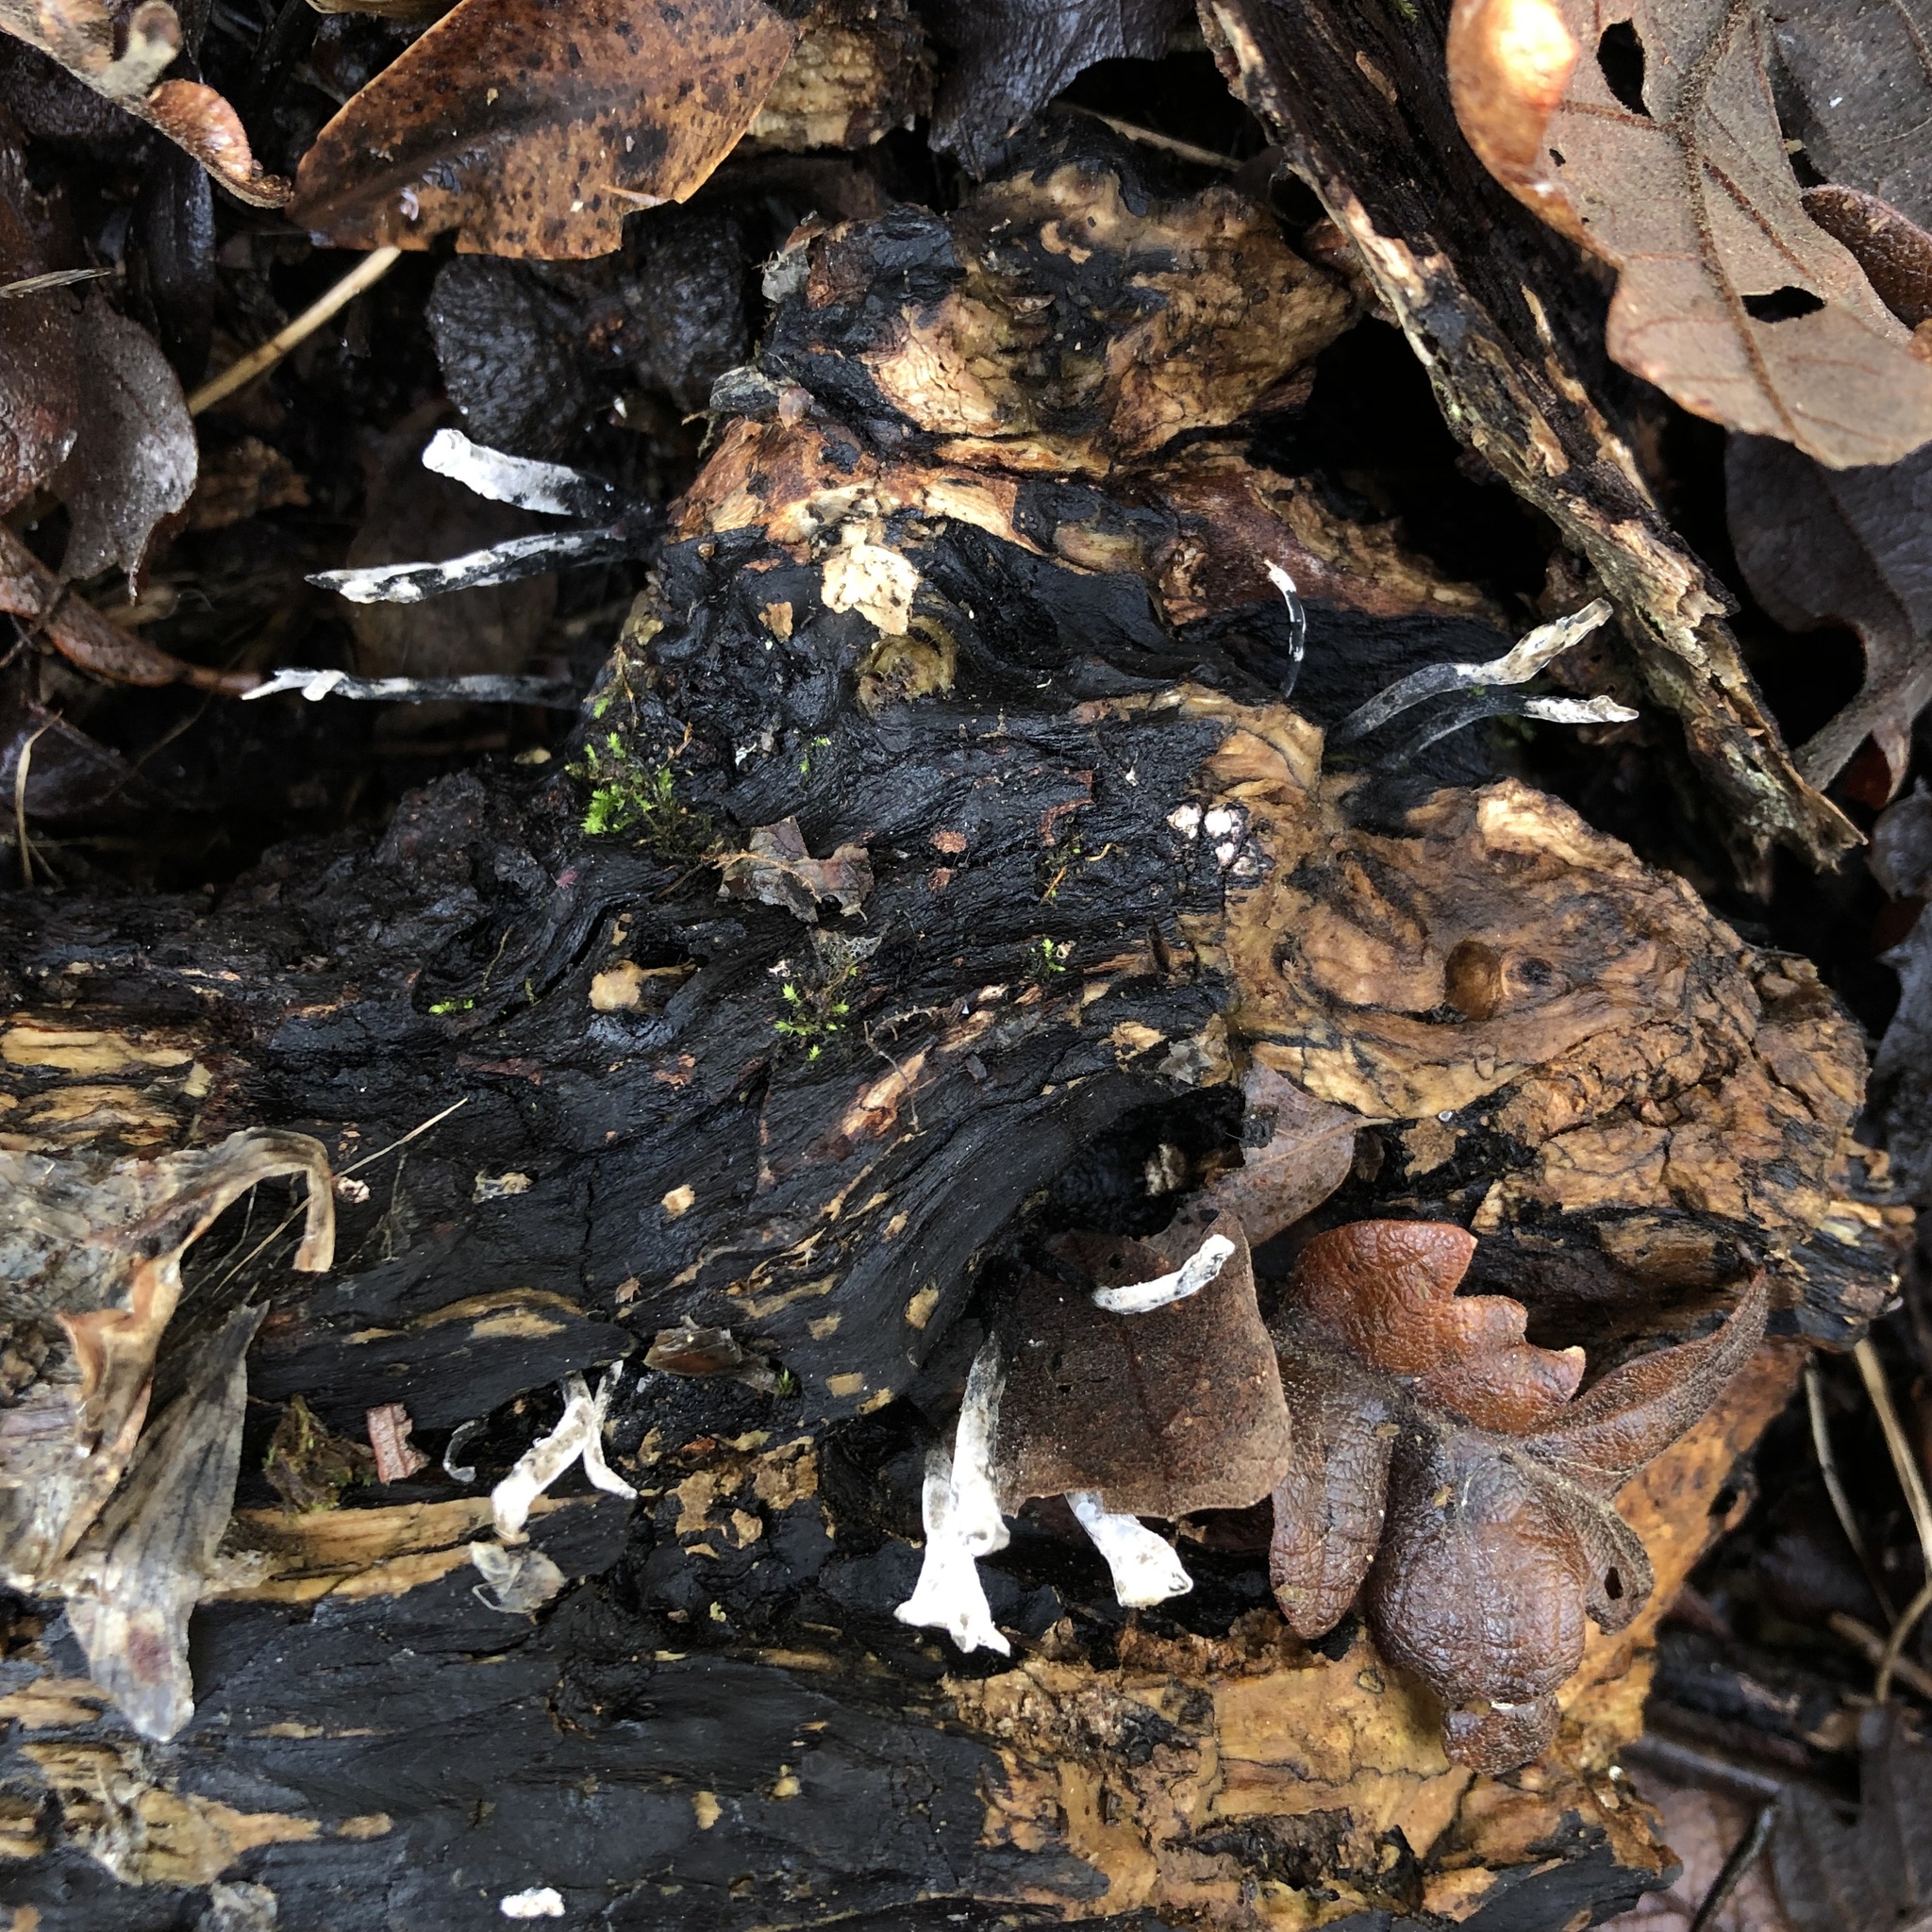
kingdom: Fungi
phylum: Ascomycota
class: Sordariomycetes
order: Xylariales
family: Xylariaceae
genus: Xylaria
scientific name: Xylaria hypoxylon
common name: Candle-snuff fungus
